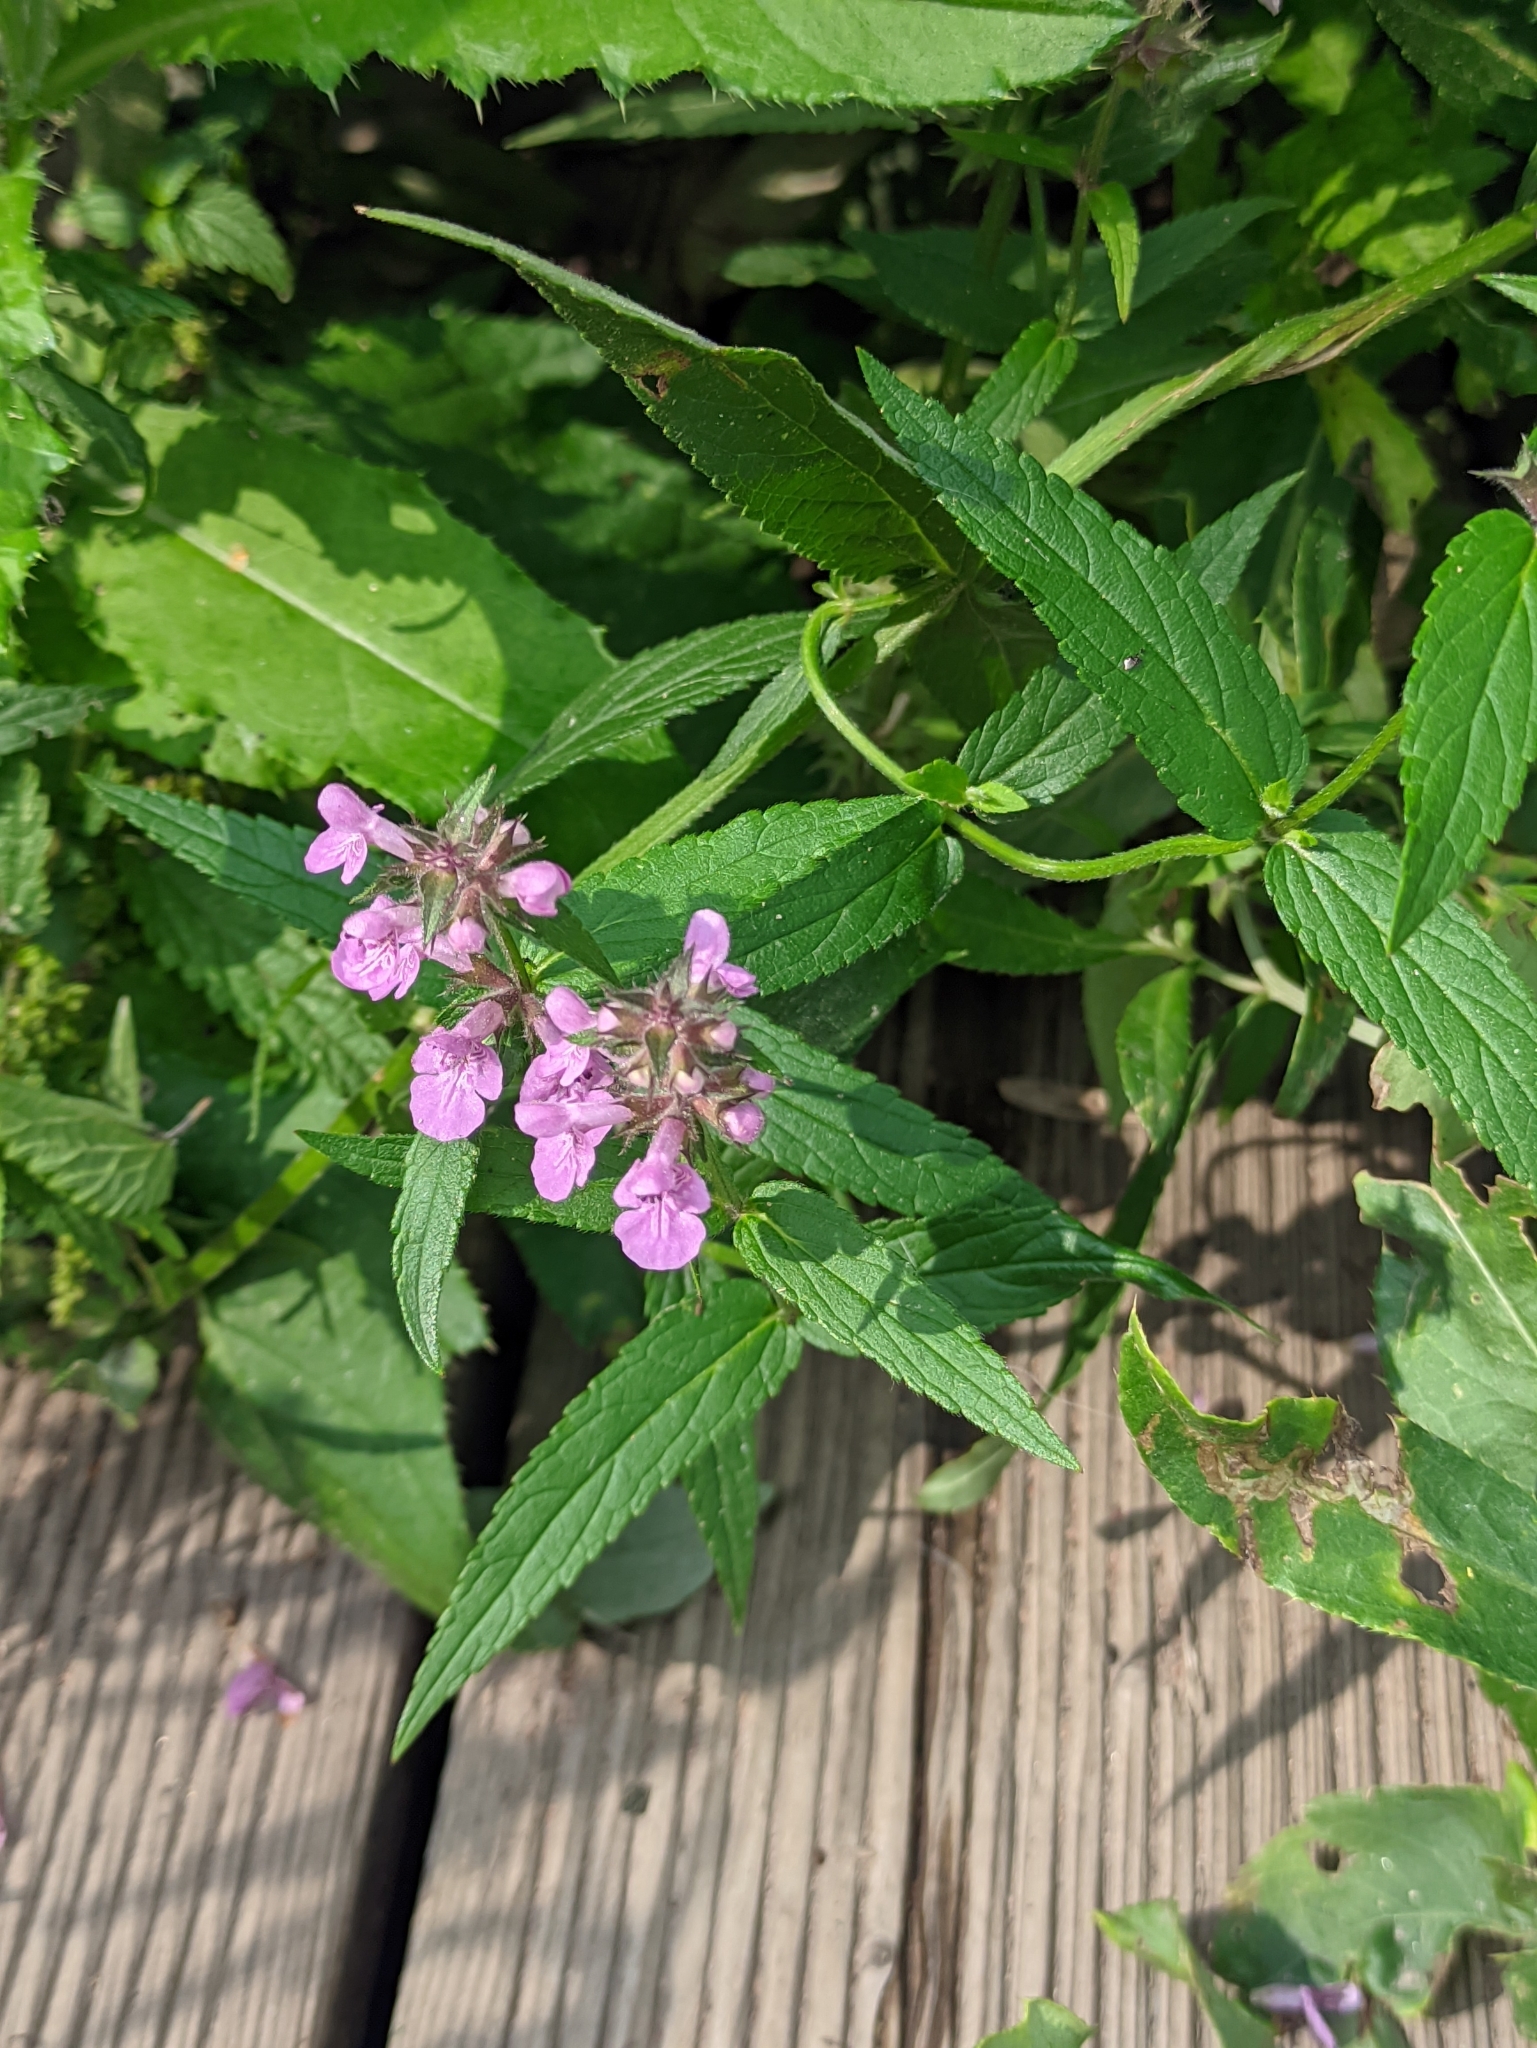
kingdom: Plantae
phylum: Tracheophyta
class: Magnoliopsida
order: Lamiales
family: Lamiaceae
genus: Stachys
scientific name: Stachys palustris
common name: Marsh woundwort
